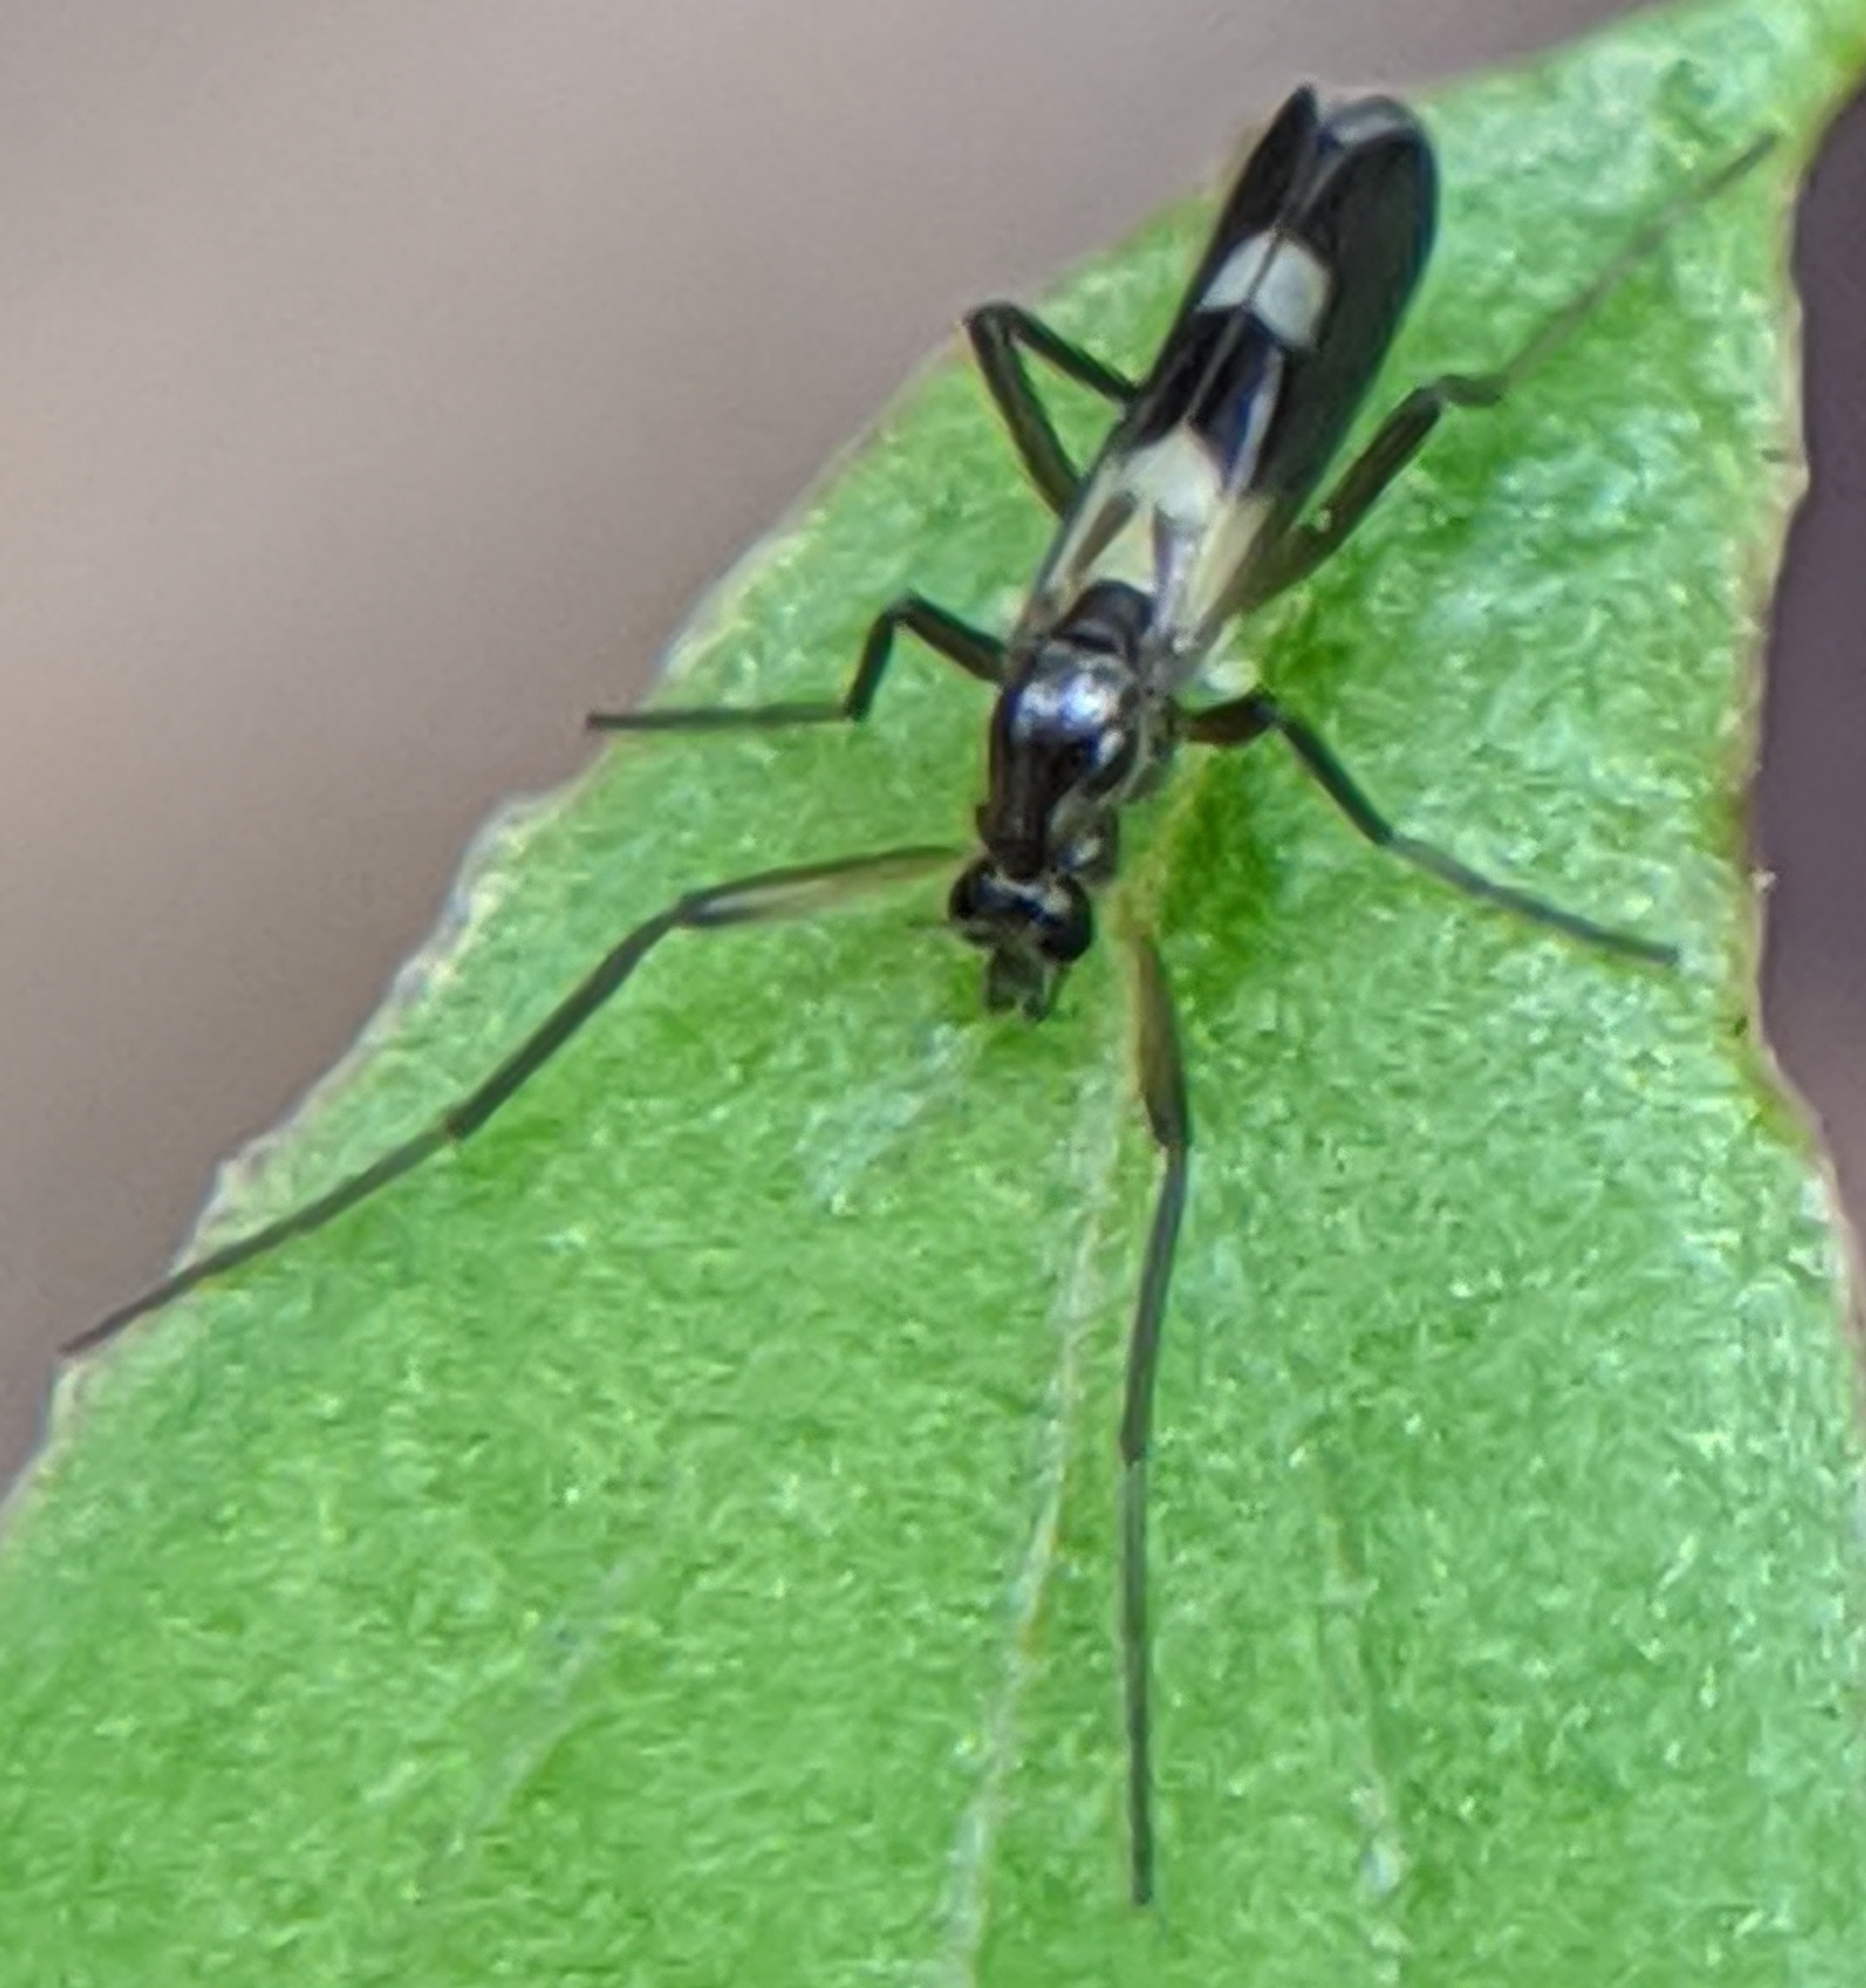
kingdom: Animalia
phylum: Arthropoda
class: Insecta
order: Diptera
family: Chironomidae
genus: Chasmatonotus
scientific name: Chasmatonotus atripes
